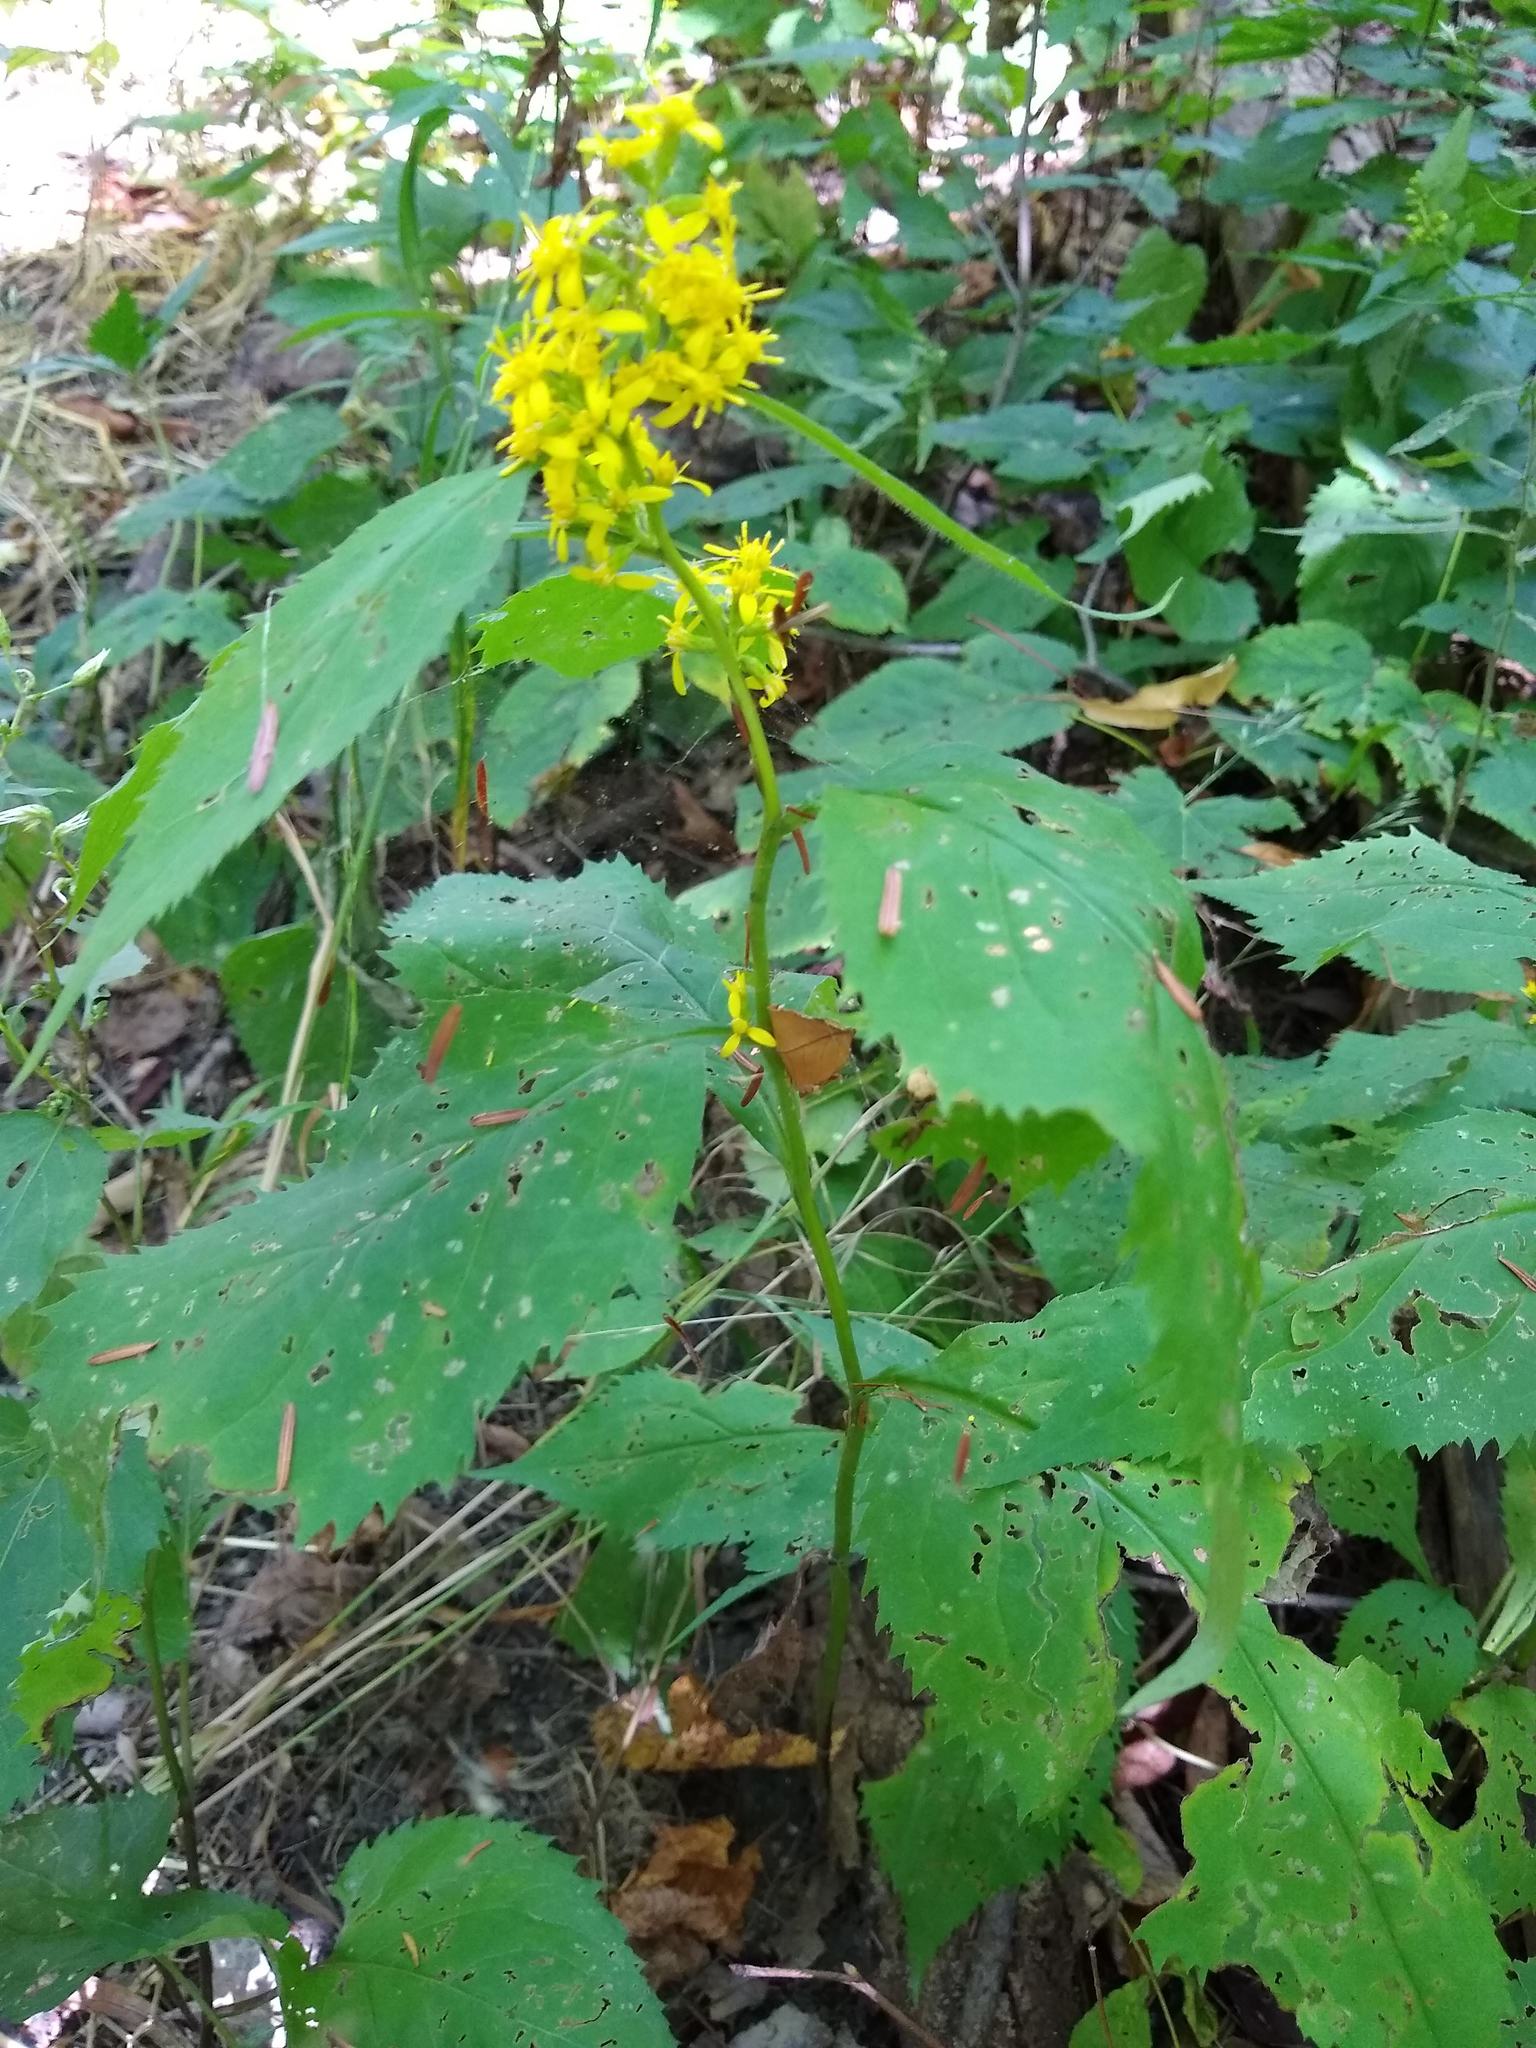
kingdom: Plantae
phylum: Tracheophyta
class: Magnoliopsida
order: Asterales
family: Asteraceae
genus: Solidago
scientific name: Solidago flexicaulis
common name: Zig-zag goldenrod
